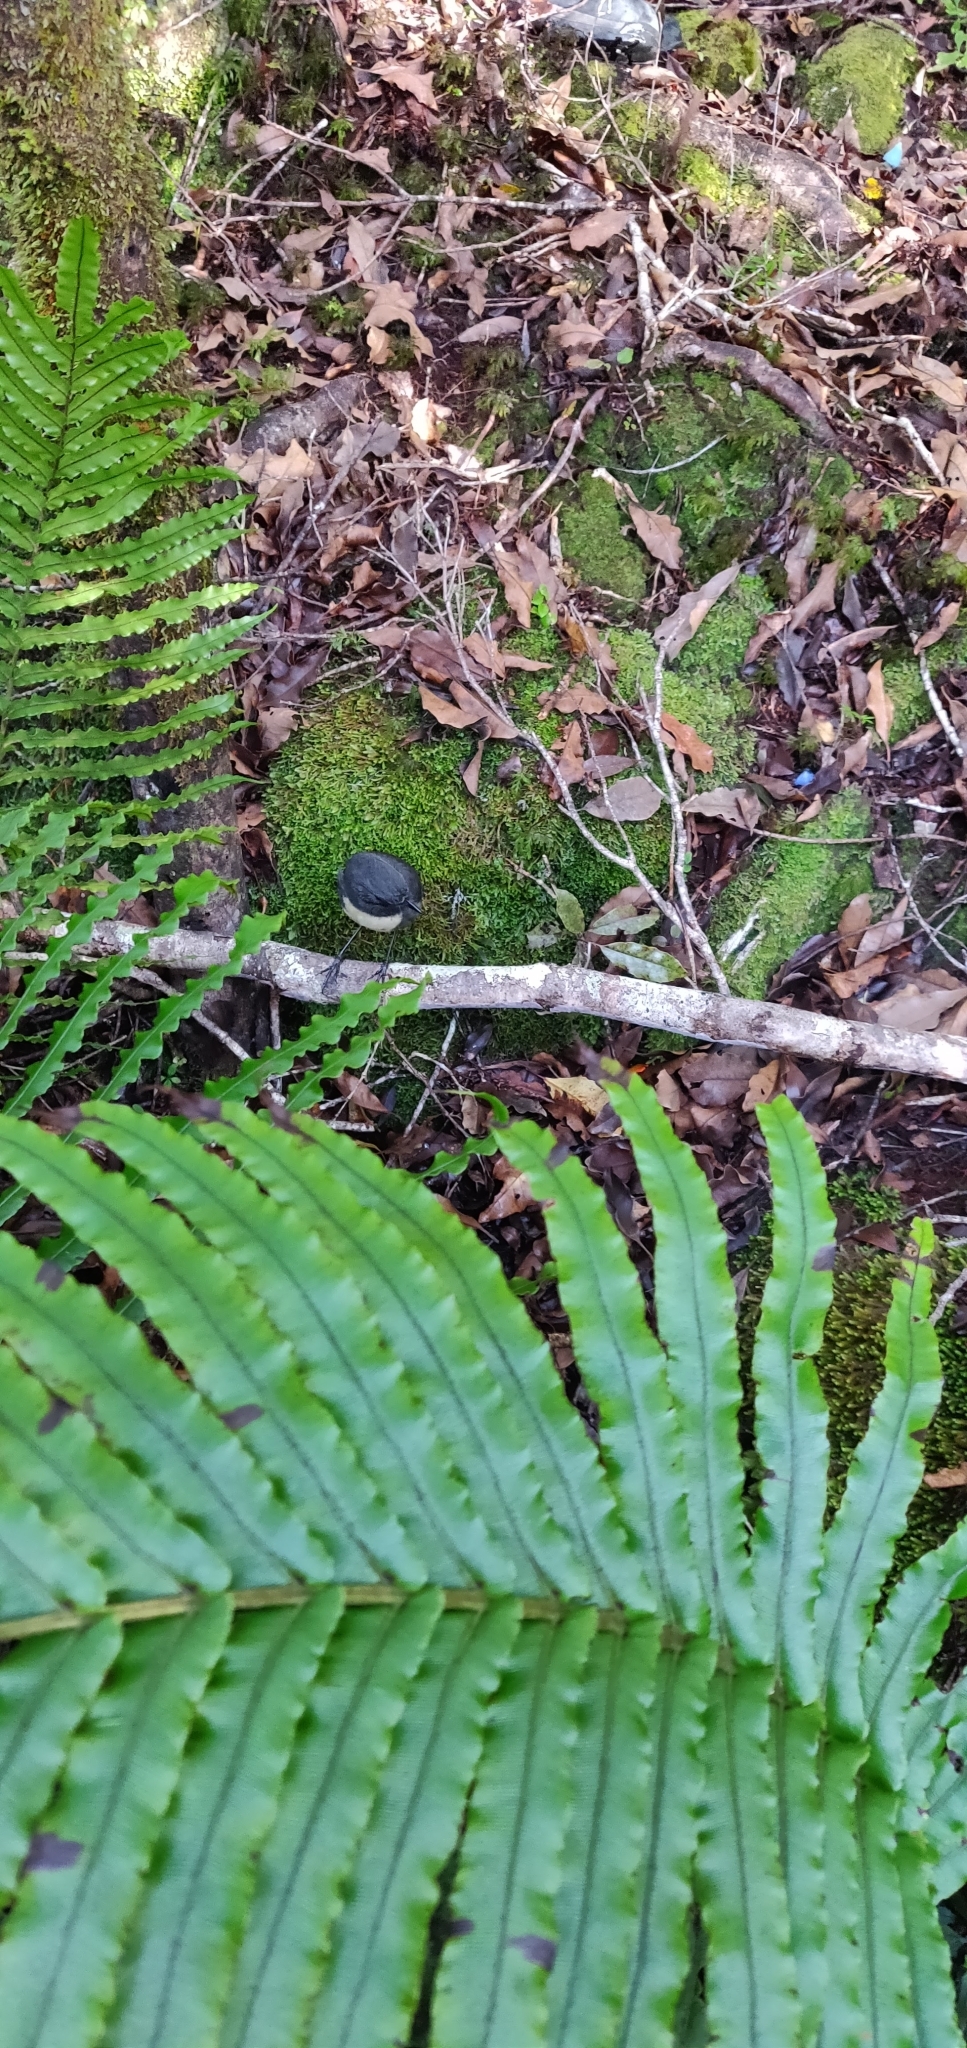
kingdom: Animalia
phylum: Chordata
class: Aves
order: Passeriformes
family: Petroicidae
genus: Petroica
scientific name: Petroica australis
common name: New zealand robin
